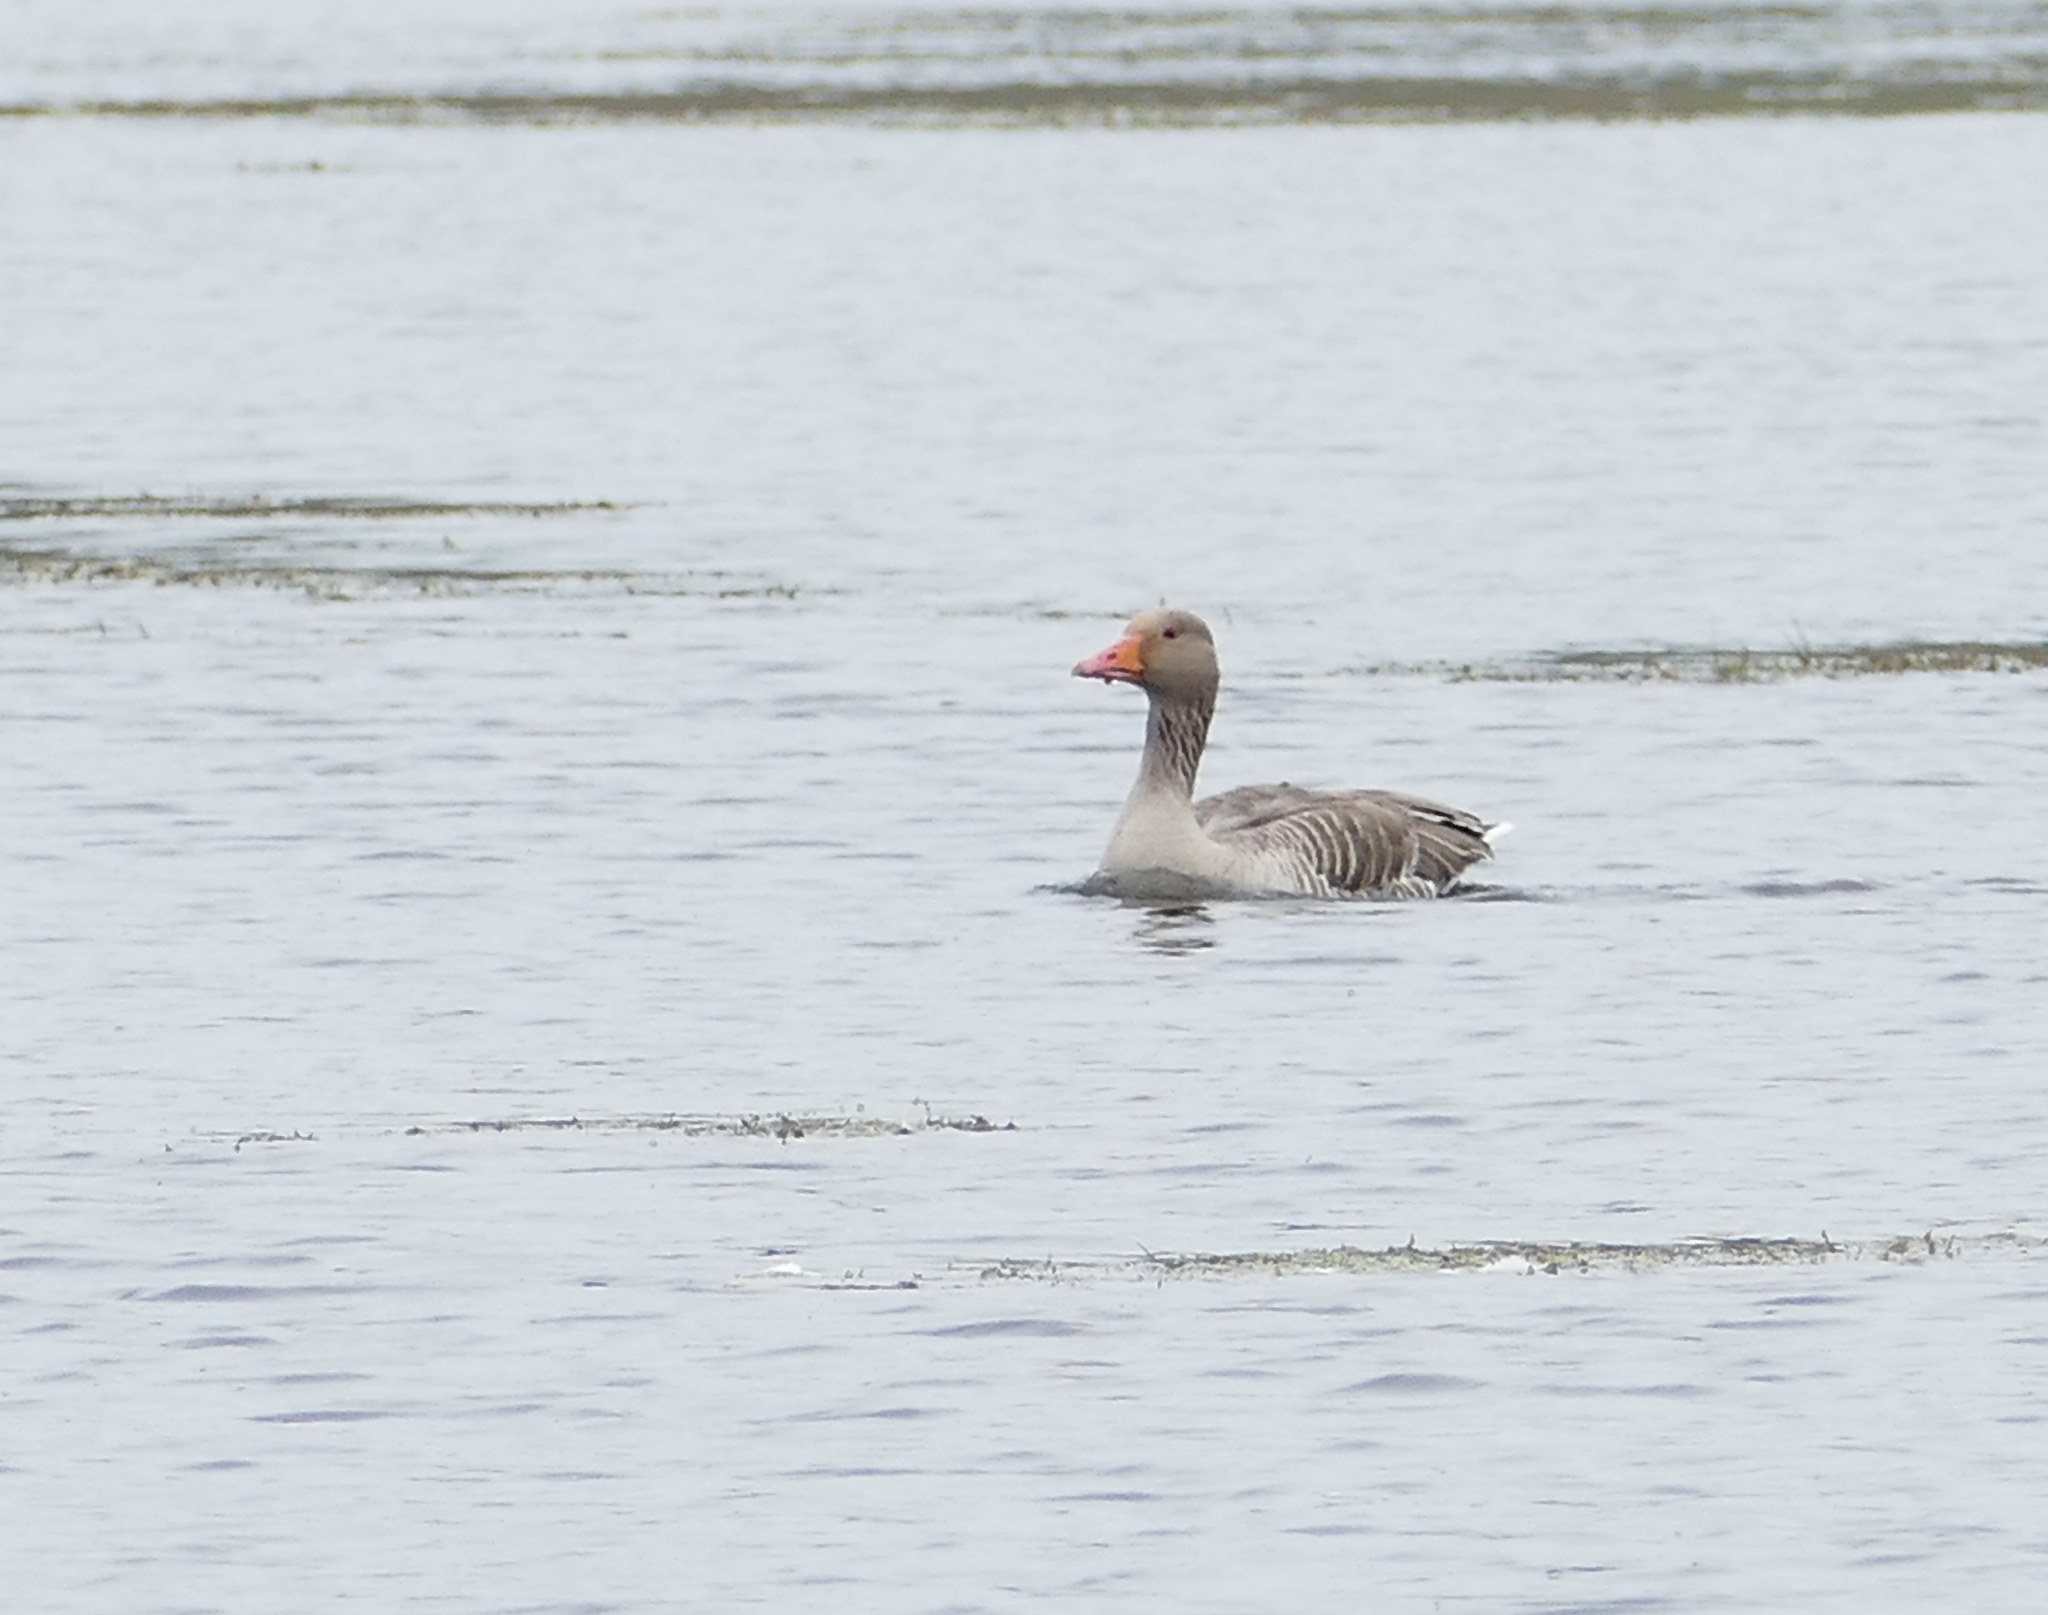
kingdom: Animalia
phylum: Chordata
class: Aves
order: Anseriformes
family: Anatidae
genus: Anser
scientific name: Anser anser
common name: Greylag goose
